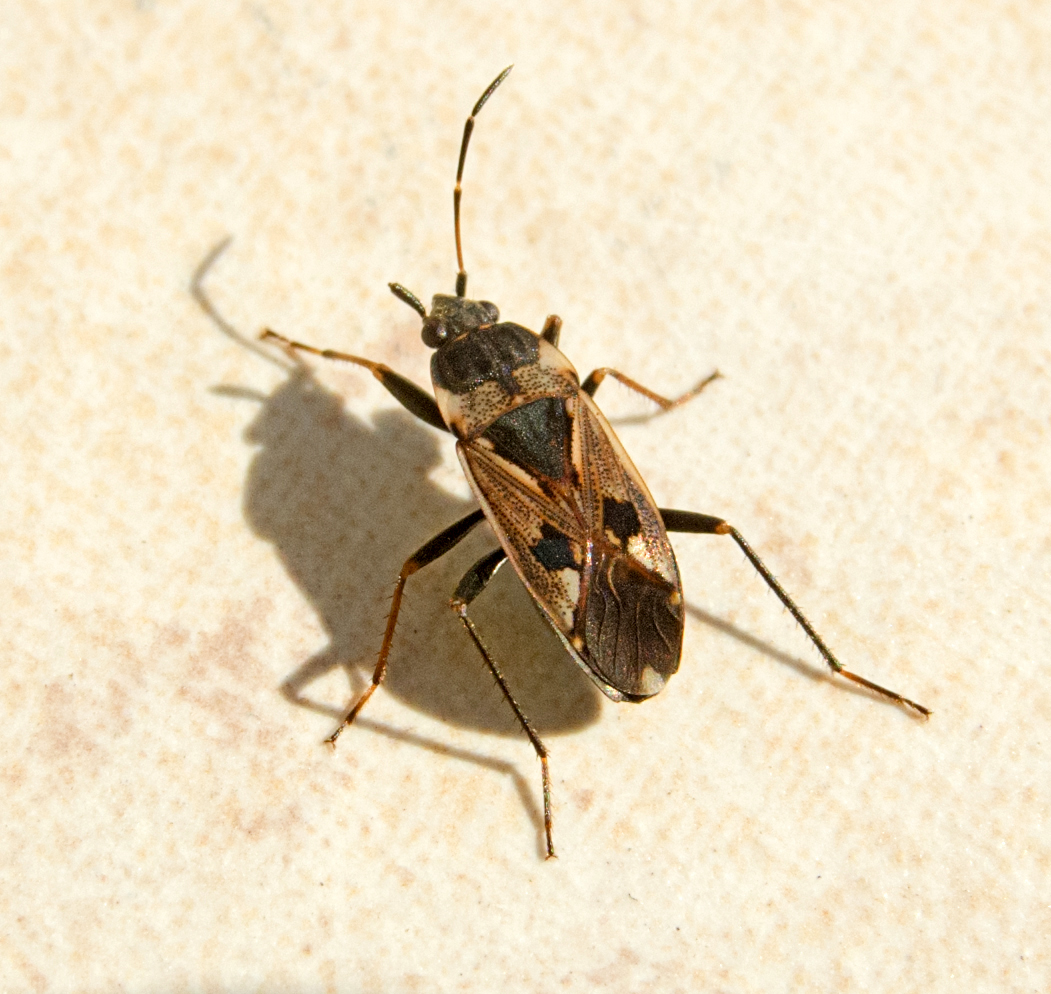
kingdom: Animalia
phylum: Arthropoda
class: Insecta
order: Hemiptera
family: Rhyparochromidae
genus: Rhyparochromus
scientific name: Rhyparochromus vulgaris
